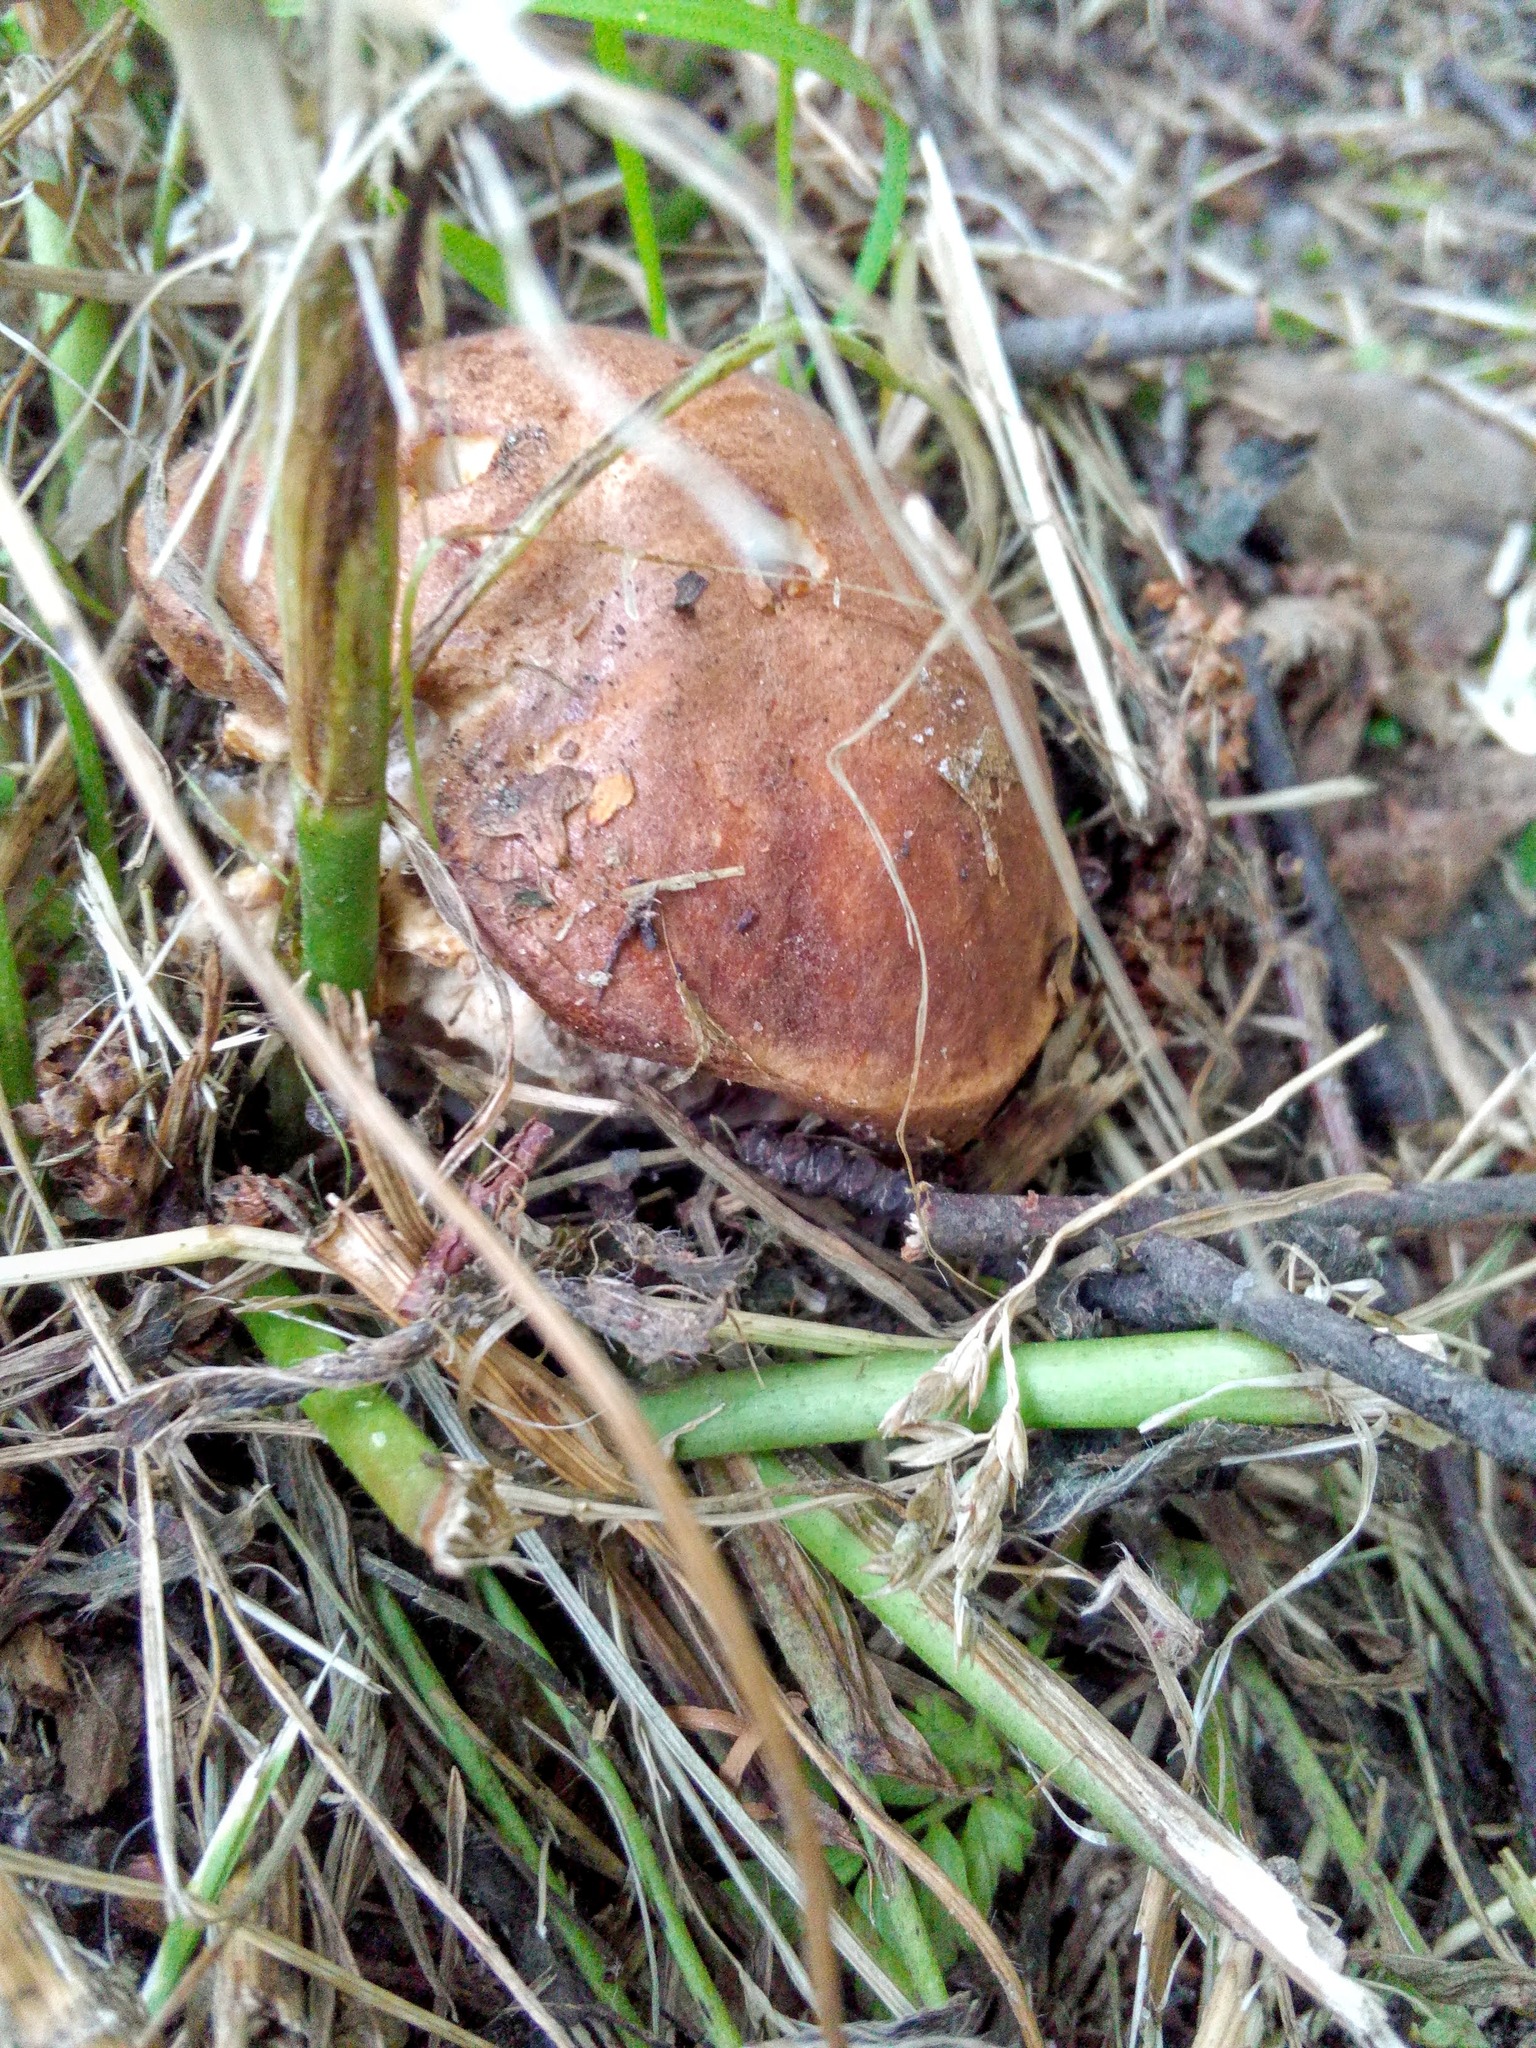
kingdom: Fungi
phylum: Basidiomycota
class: Agaricomycetes
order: Boletales
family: Boletaceae
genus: Leccinum
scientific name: Leccinum scabrum
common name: Blushing bolete
